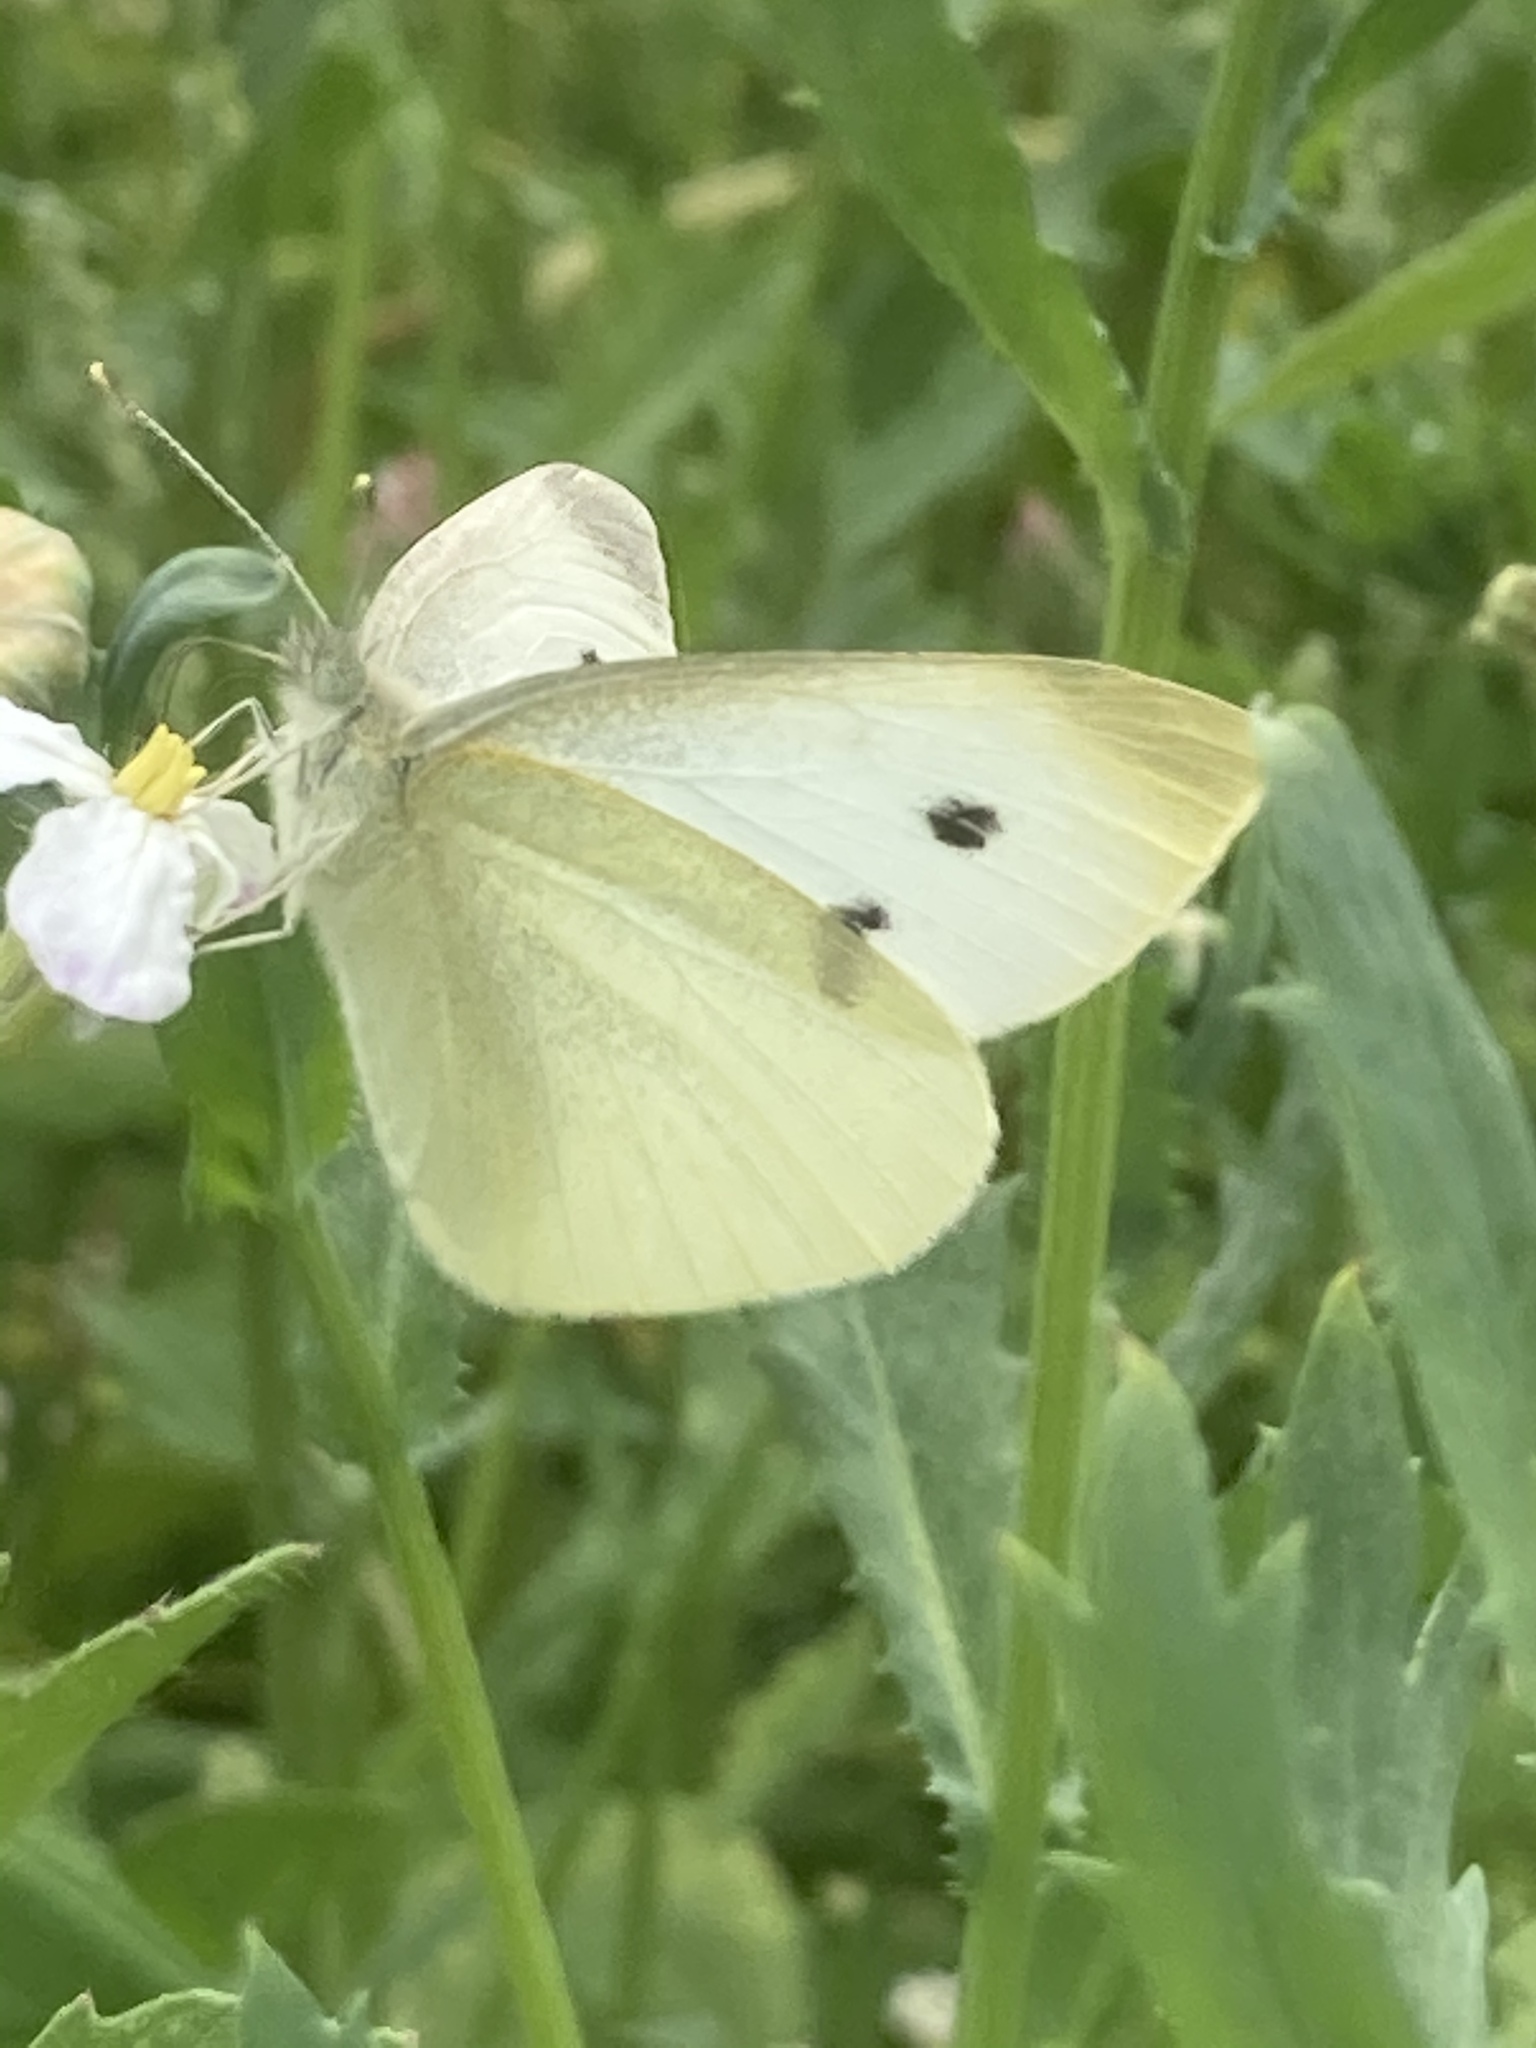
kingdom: Animalia
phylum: Arthropoda
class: Insecta
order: Lepidoptera
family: Pieridae
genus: Pieris
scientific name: Pieris rapae
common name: Small white
